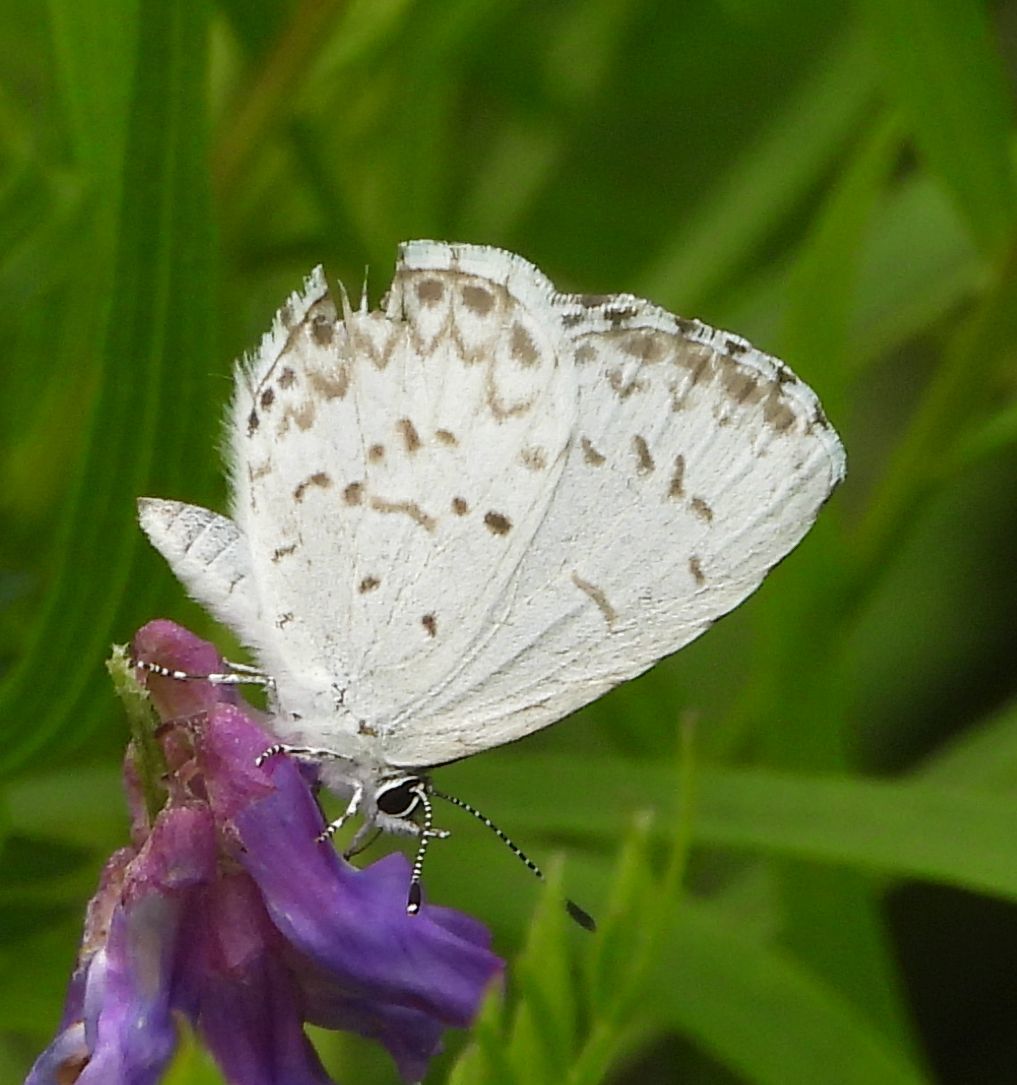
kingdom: Animalia
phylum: Arthropoda
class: Insecta
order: Lepidoptera
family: Lycaenidae
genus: Celastrina
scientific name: Celastrina lucia
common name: Lucia azure
